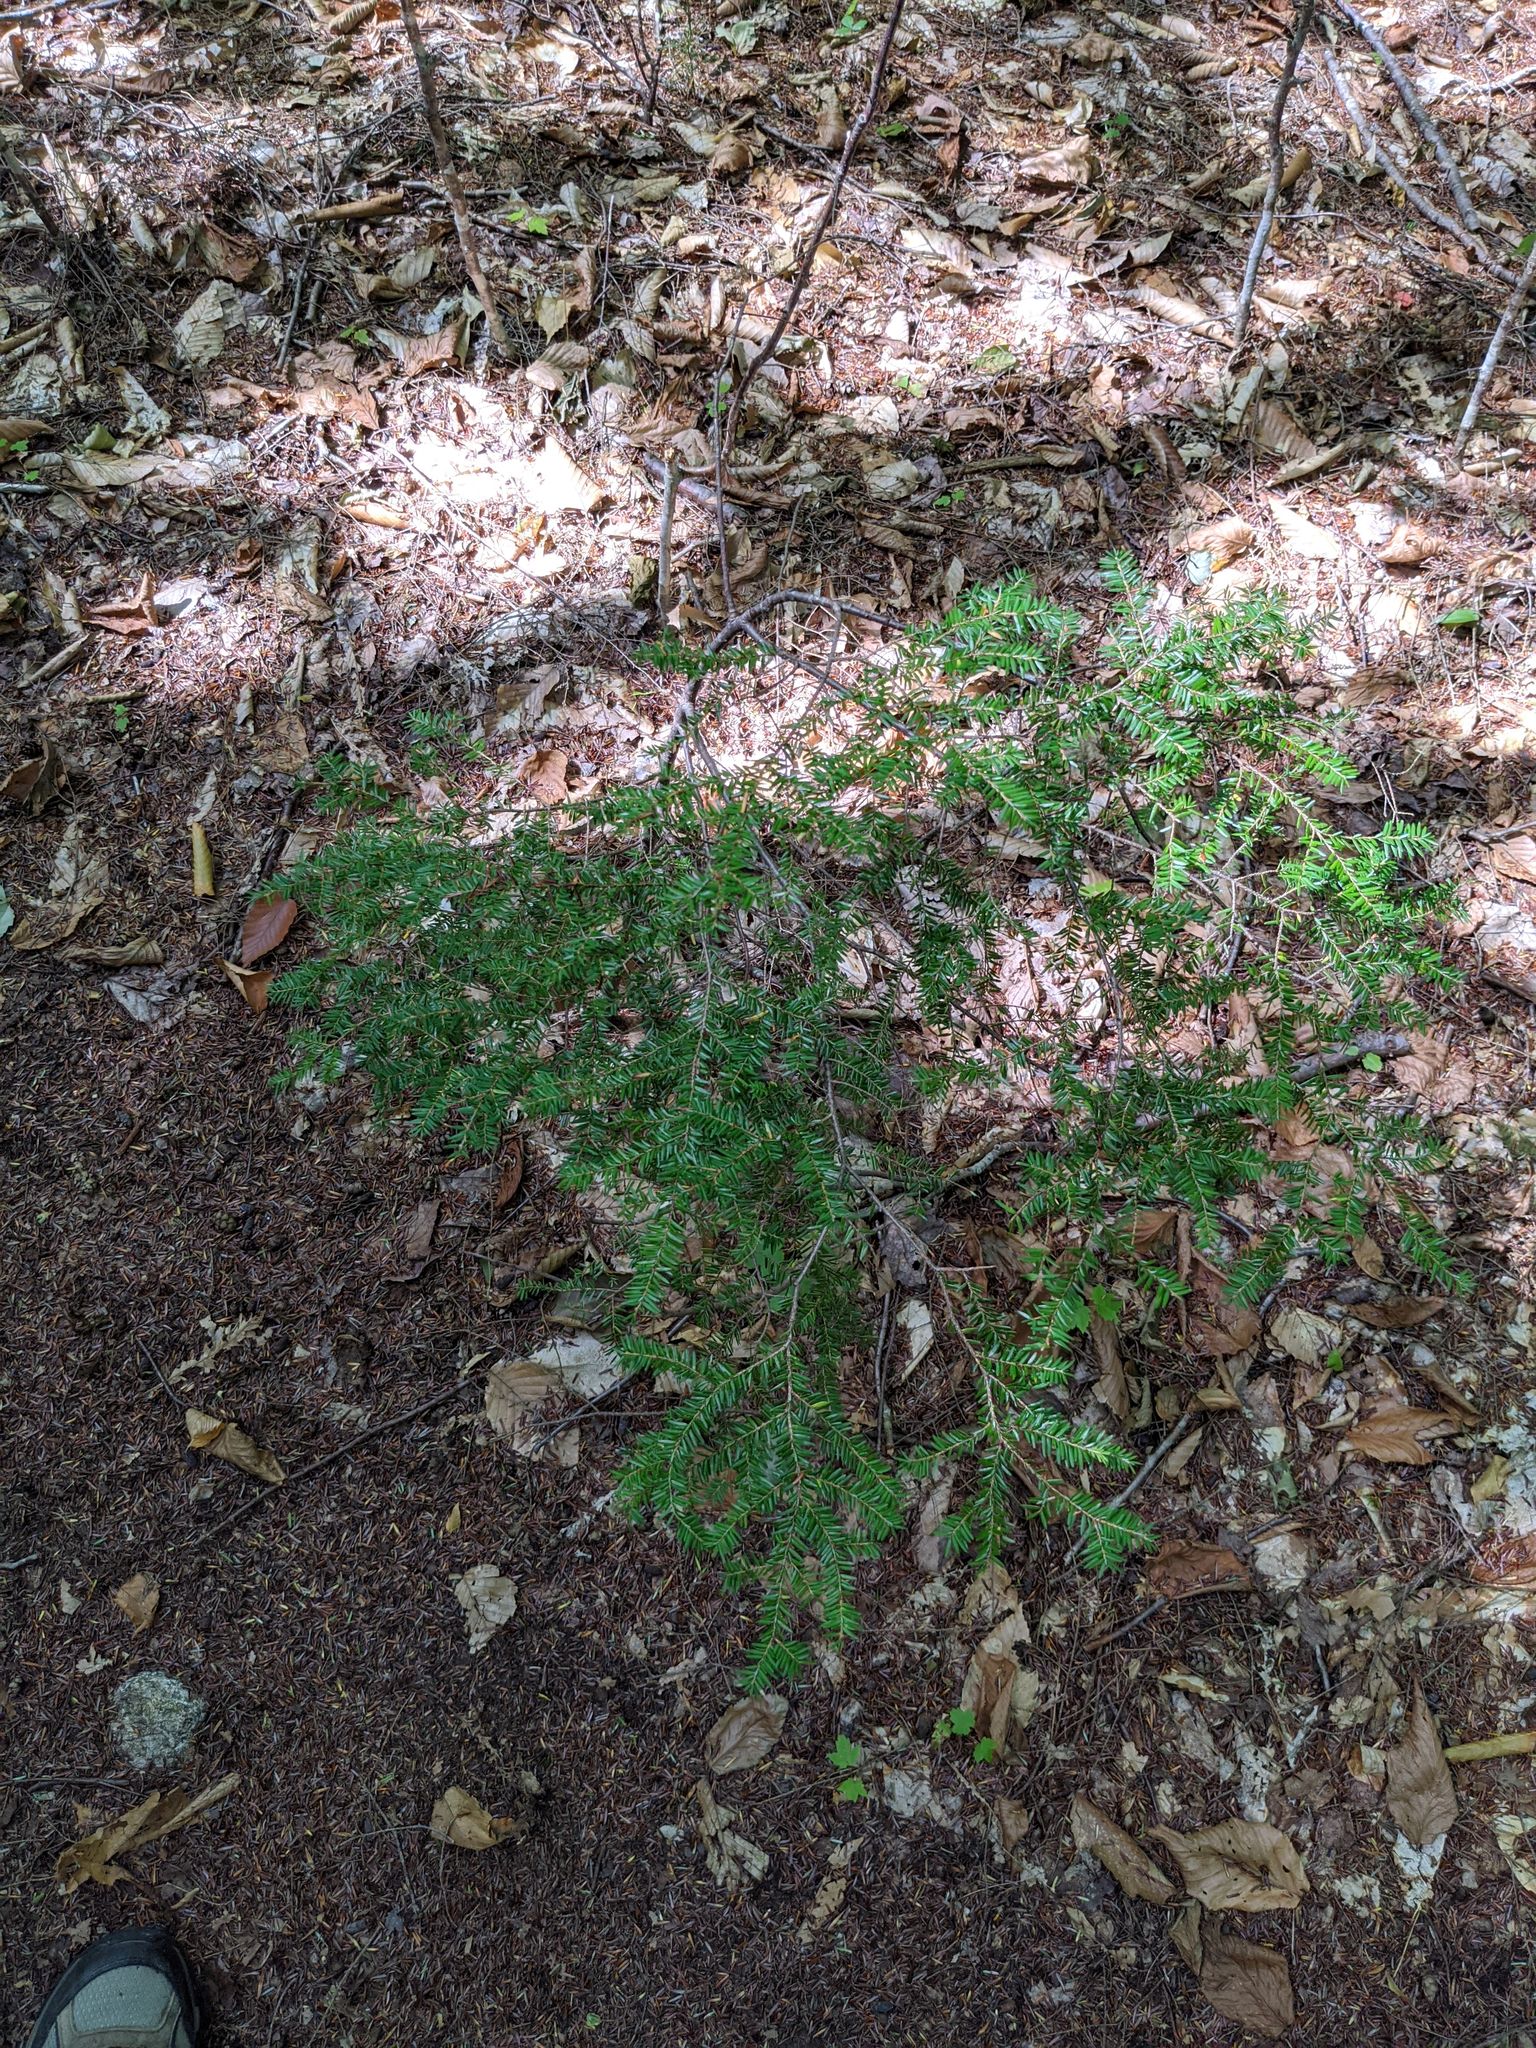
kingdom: Plantae
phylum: Tracheophyta
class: Pinopsida
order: Pinales
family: Pinaceae
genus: Tsuga
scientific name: Tsuga canadensis
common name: Eastern hemlock
